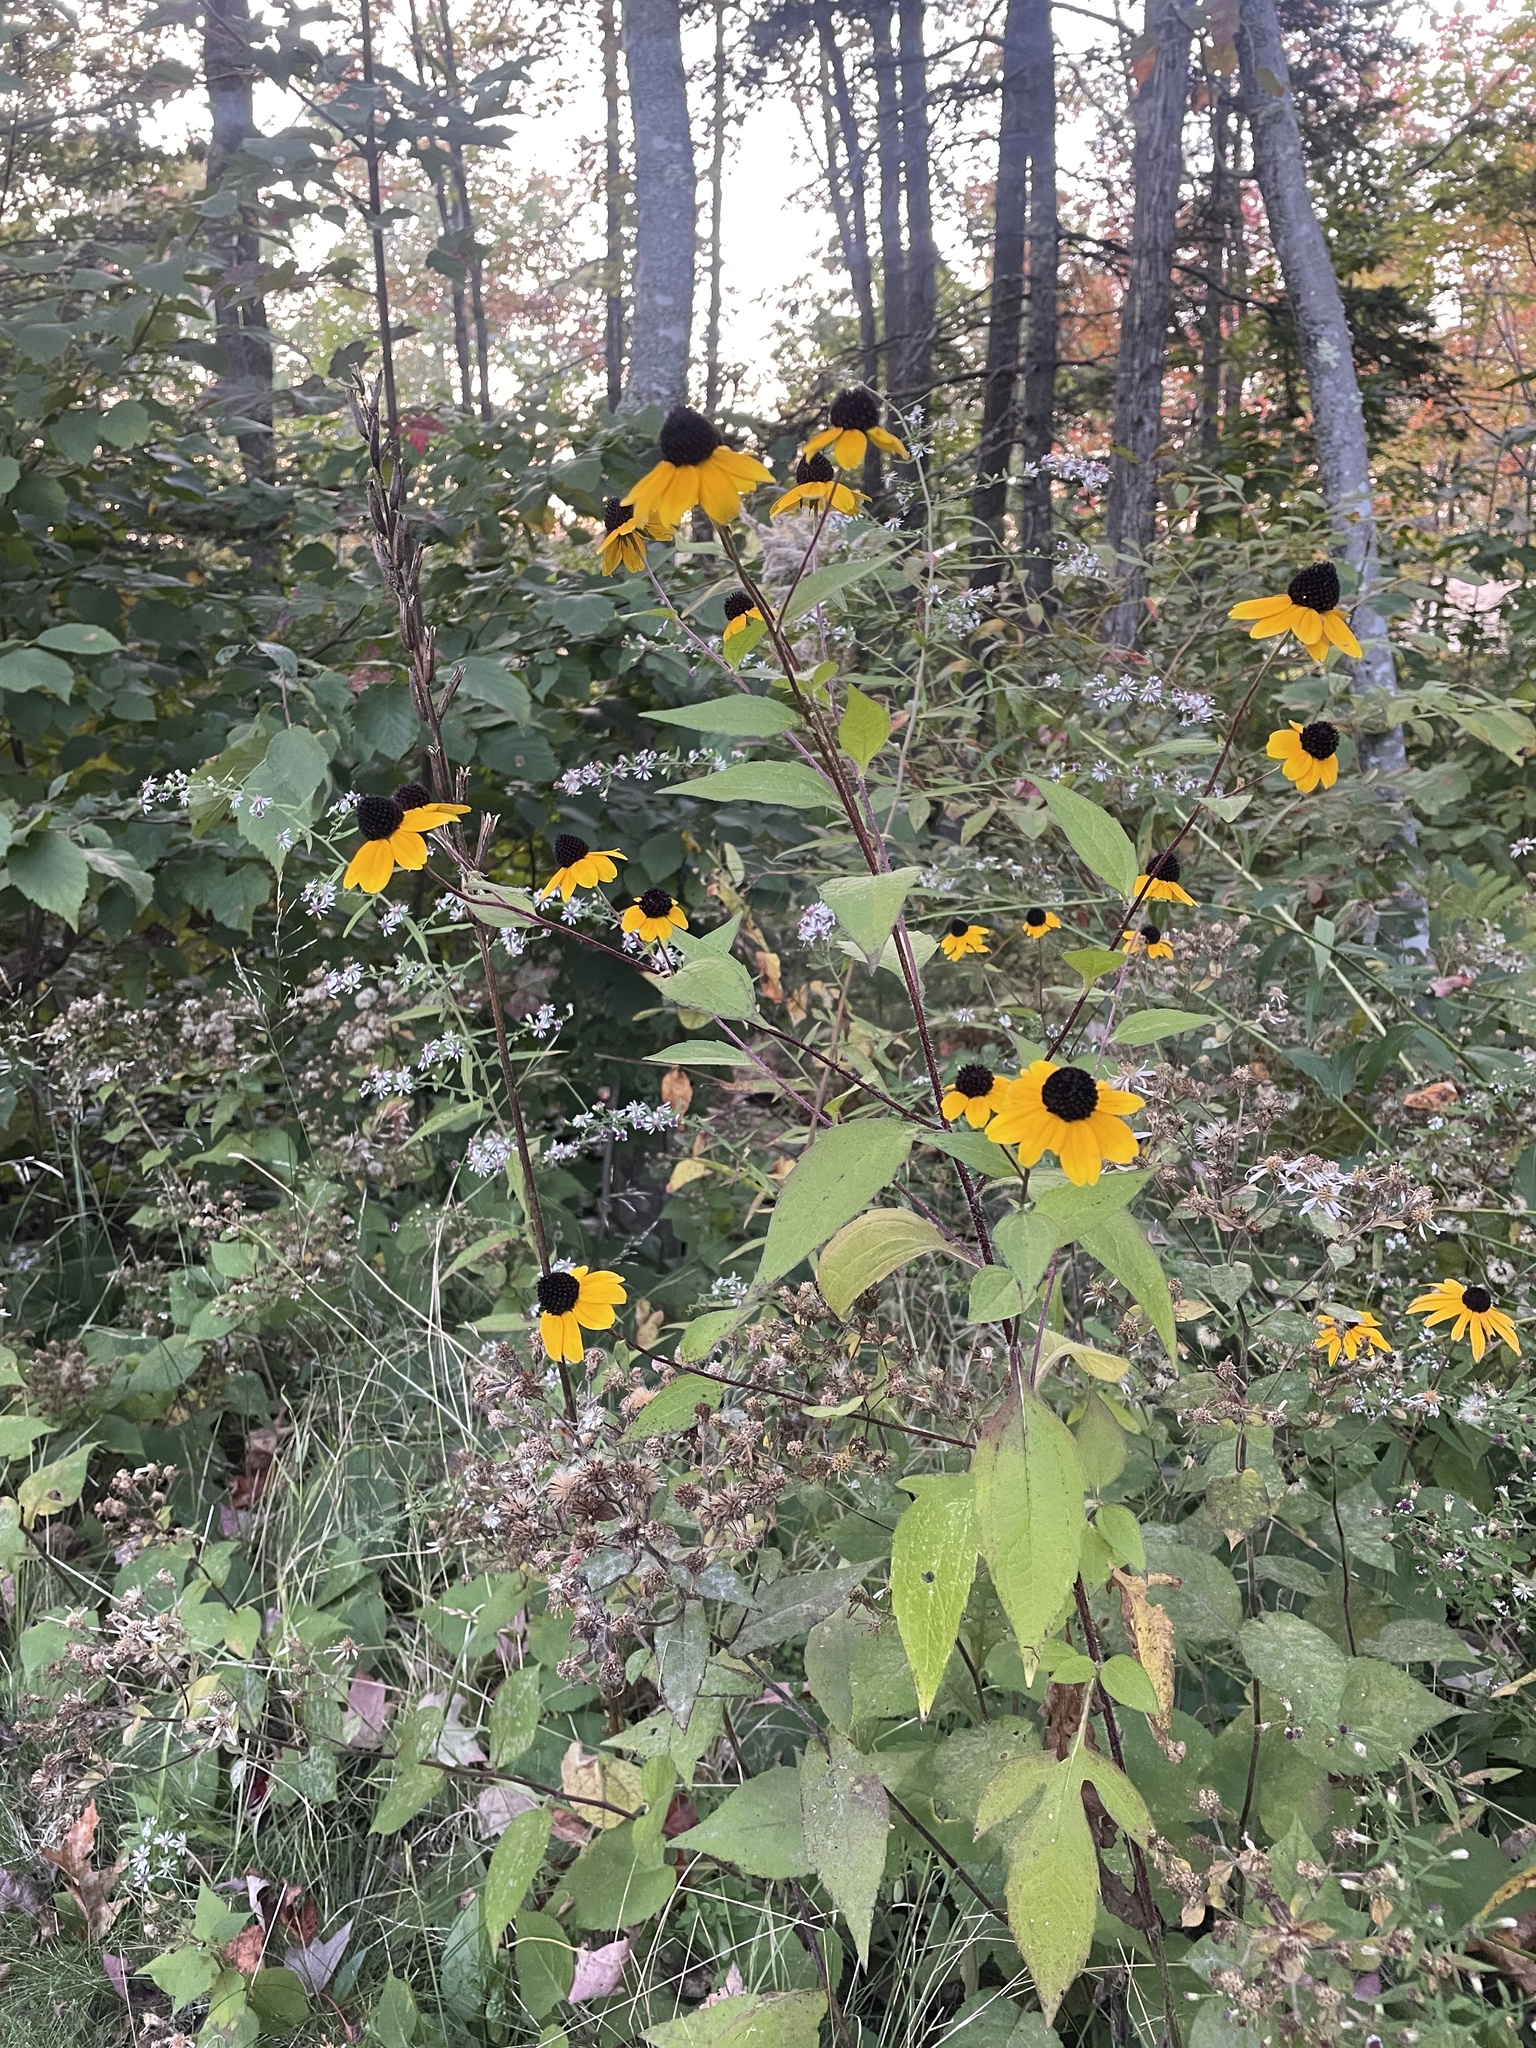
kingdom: Plantae
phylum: Tracheophyta
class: Magnoliopsida
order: Asterales
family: Asteraceae
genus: Rudbeckia
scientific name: Rudbeckia triloba
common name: Thin-leaved coneflower
